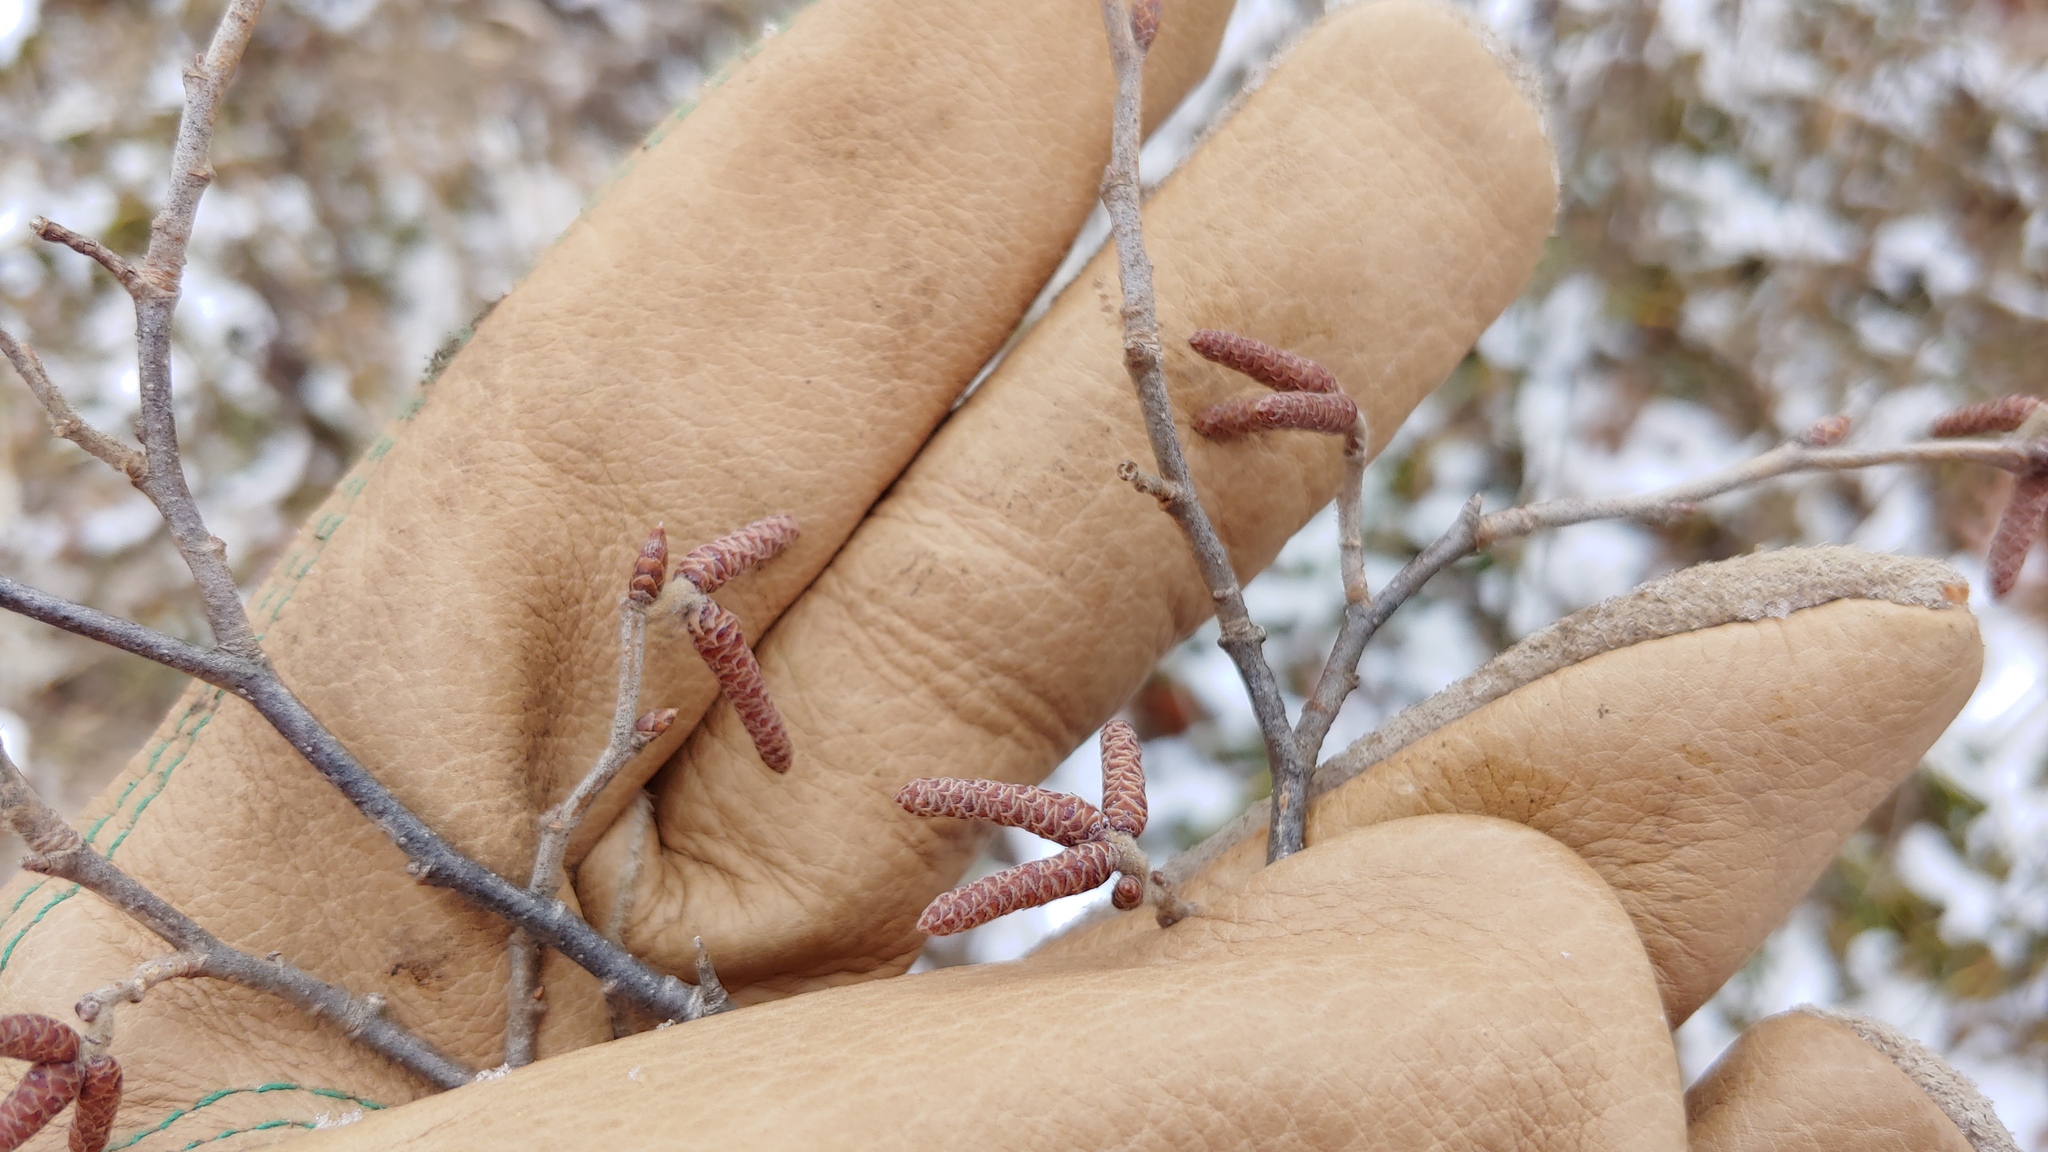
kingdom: Plantae
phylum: Tracheophyta
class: Magnoliopsida
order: Fagales
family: Betulaceae
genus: Ostrya
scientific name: Ostrya virginiana
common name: Ironwood
